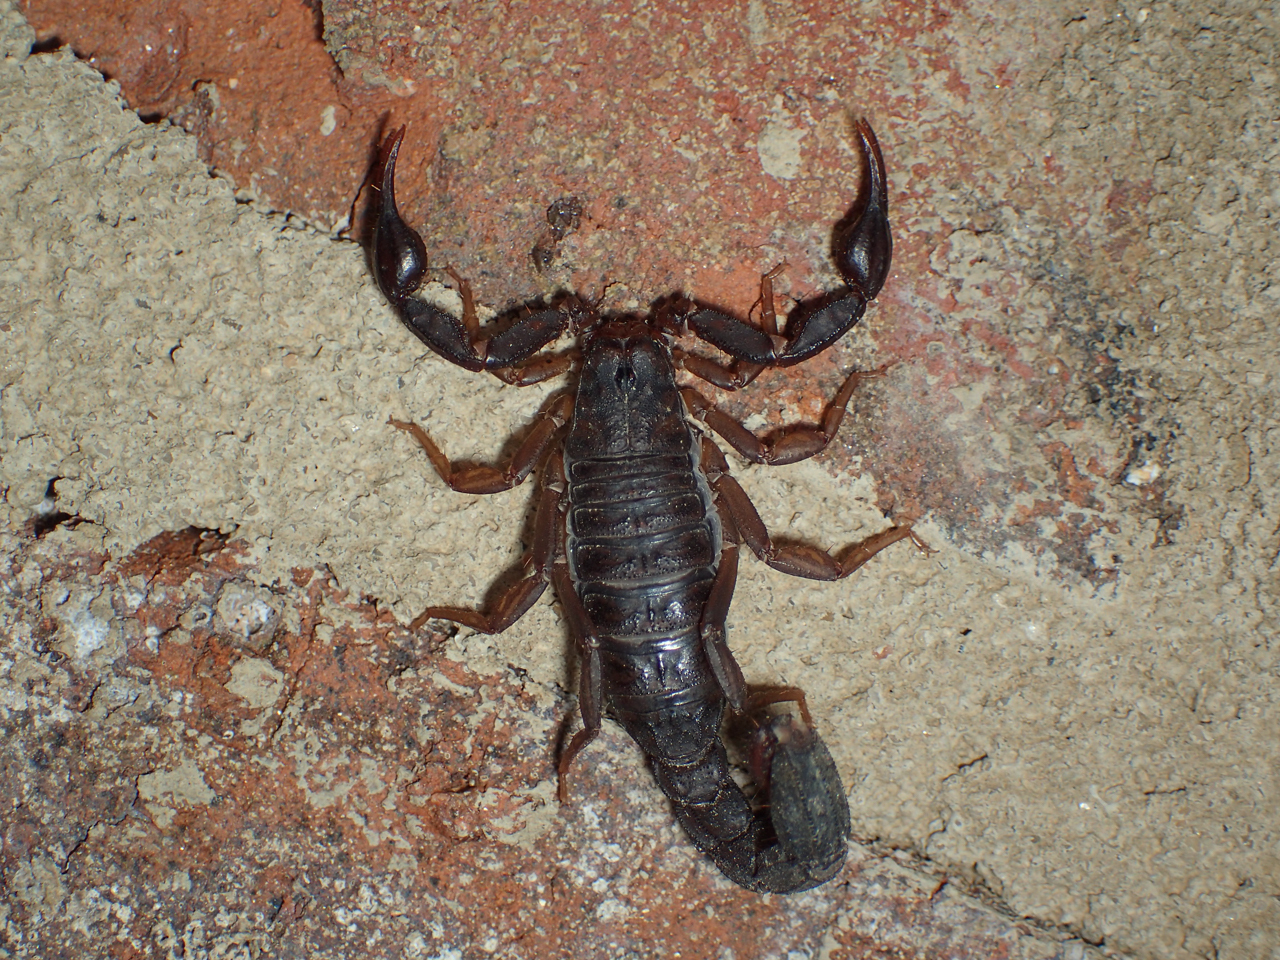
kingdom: Animalia
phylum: Arthropoda
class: Arachnida
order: Scorpiones
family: Vaejovidae
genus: Vaejovis
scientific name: Vaejovis carolinianus
